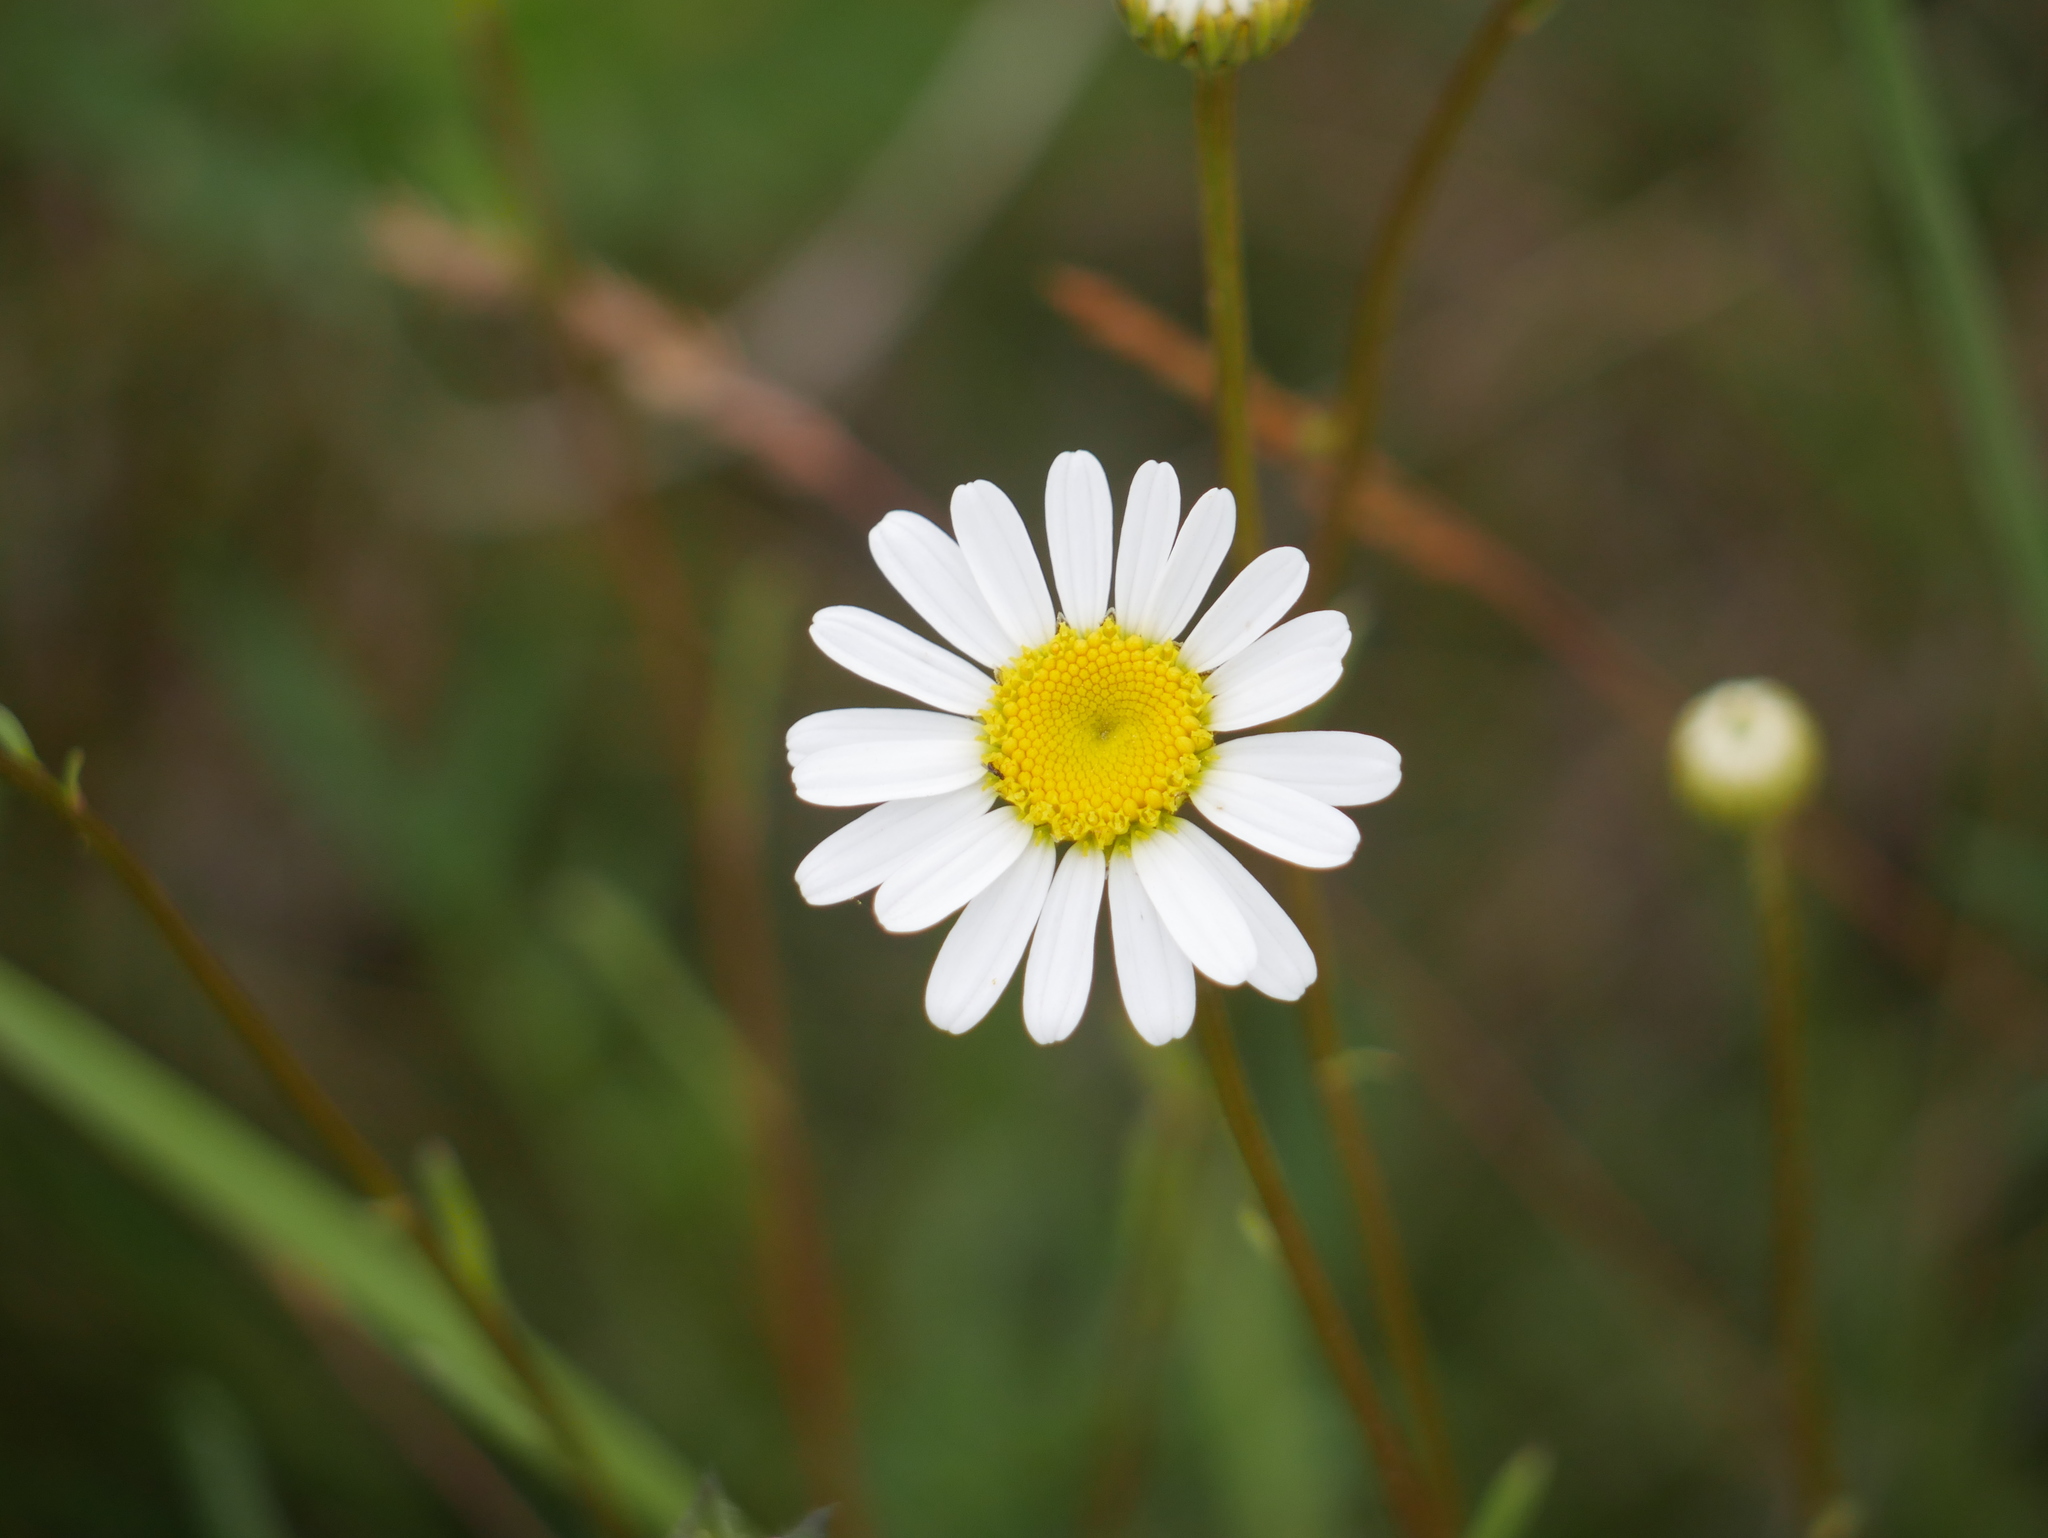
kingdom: Plantae
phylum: Tracheophyta
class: Magnoliopsida
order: Asterales
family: Asteraceae
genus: Leucanthemum
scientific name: Leucanthemum vulgare
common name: Oxeye daisy
